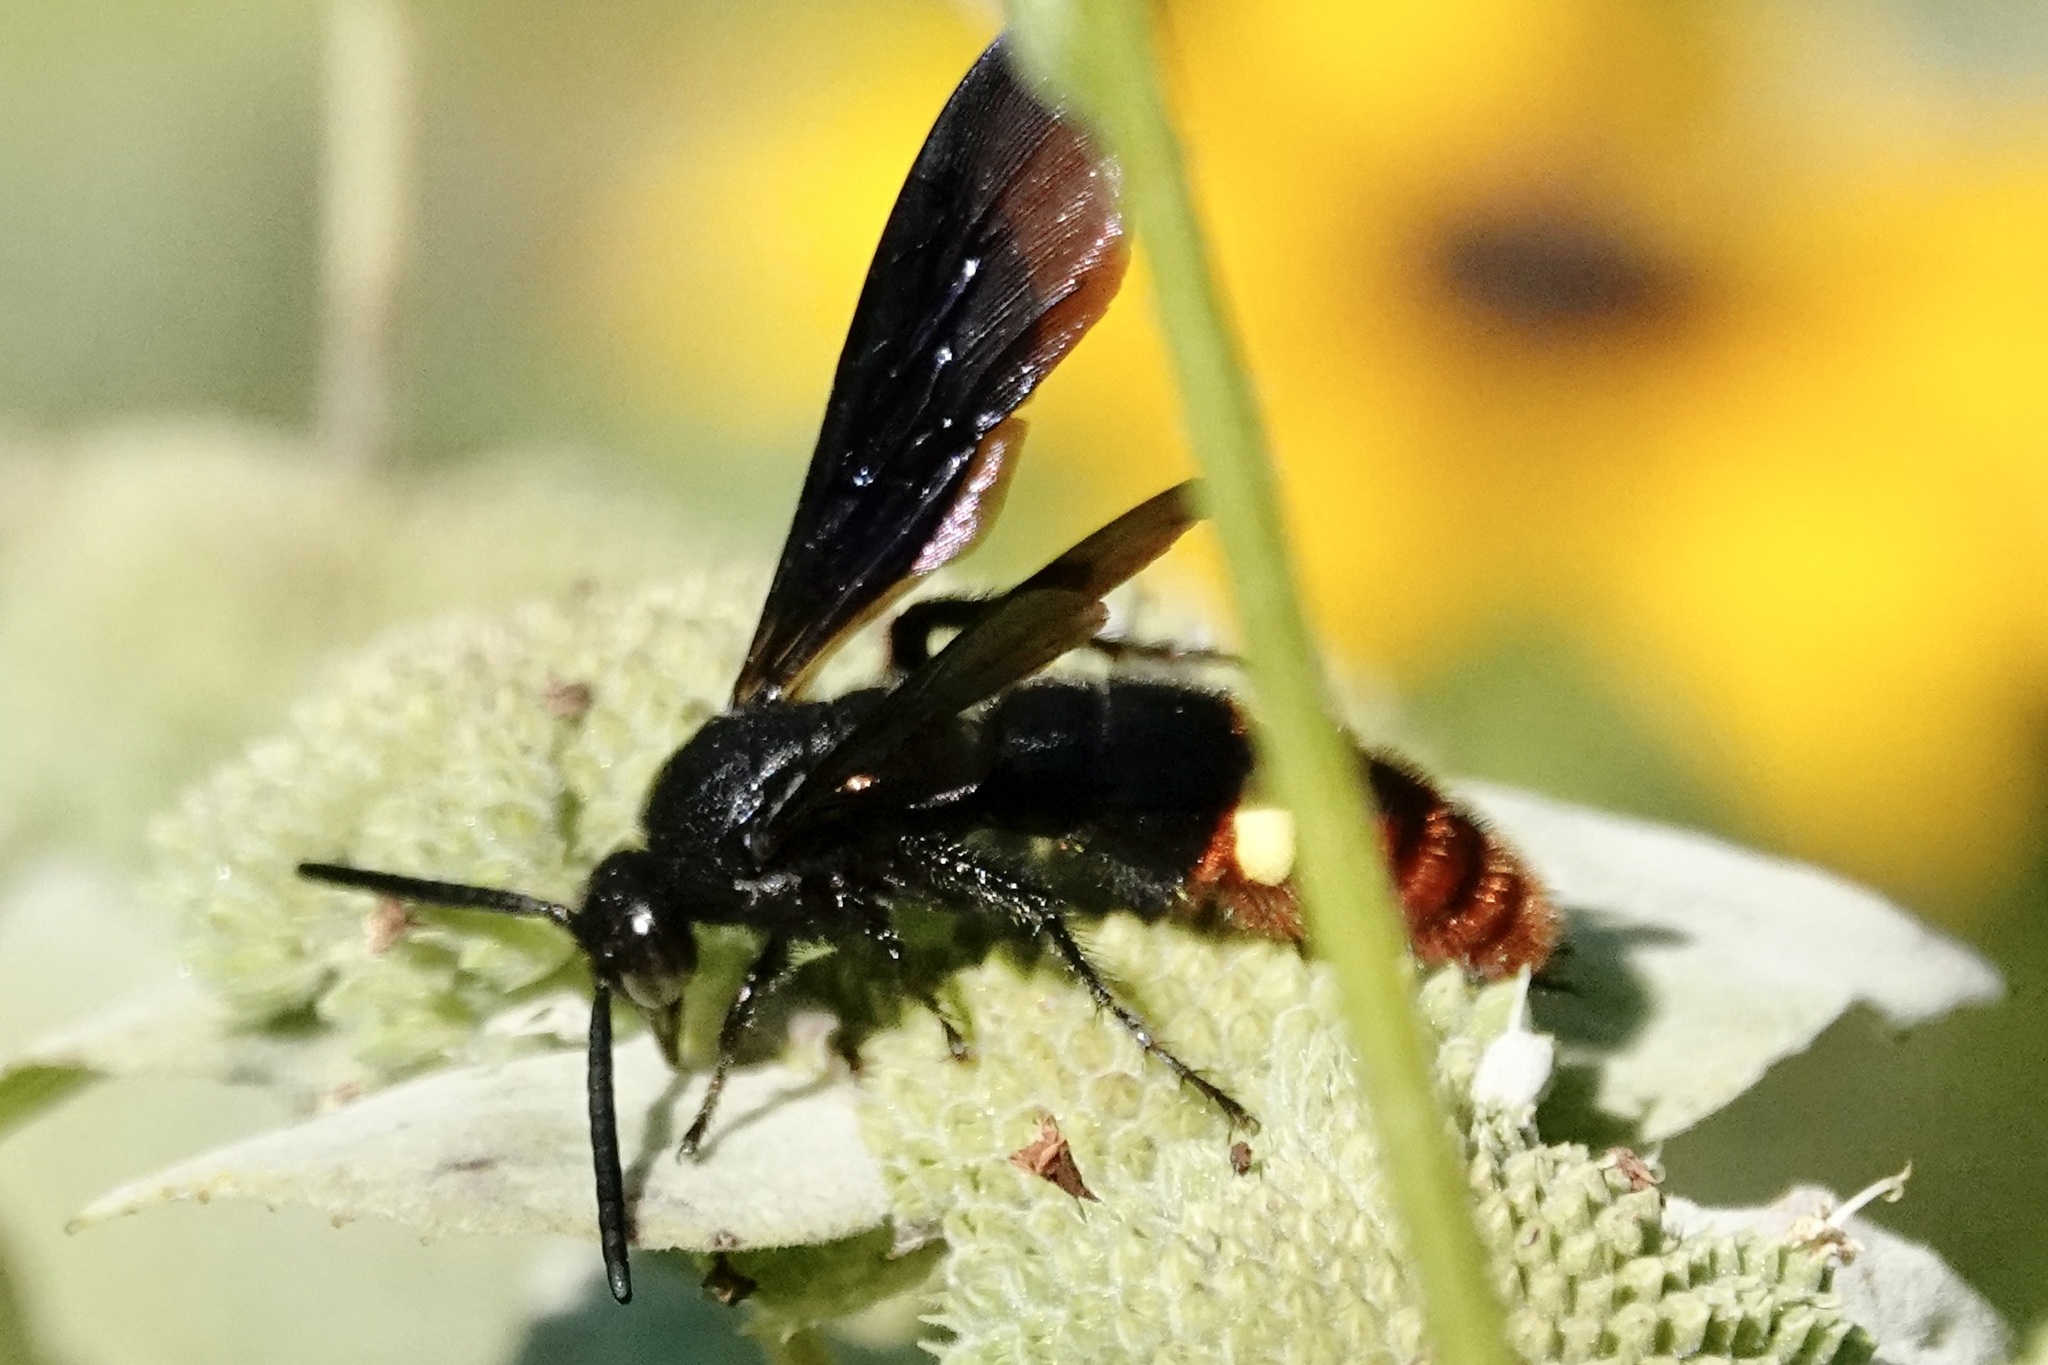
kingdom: Animalia
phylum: Arthropoda
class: Insecta
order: Hymenoptera
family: Scoliidae
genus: Scolia
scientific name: Scolia dubia
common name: Blue-winged scoliid wasp
